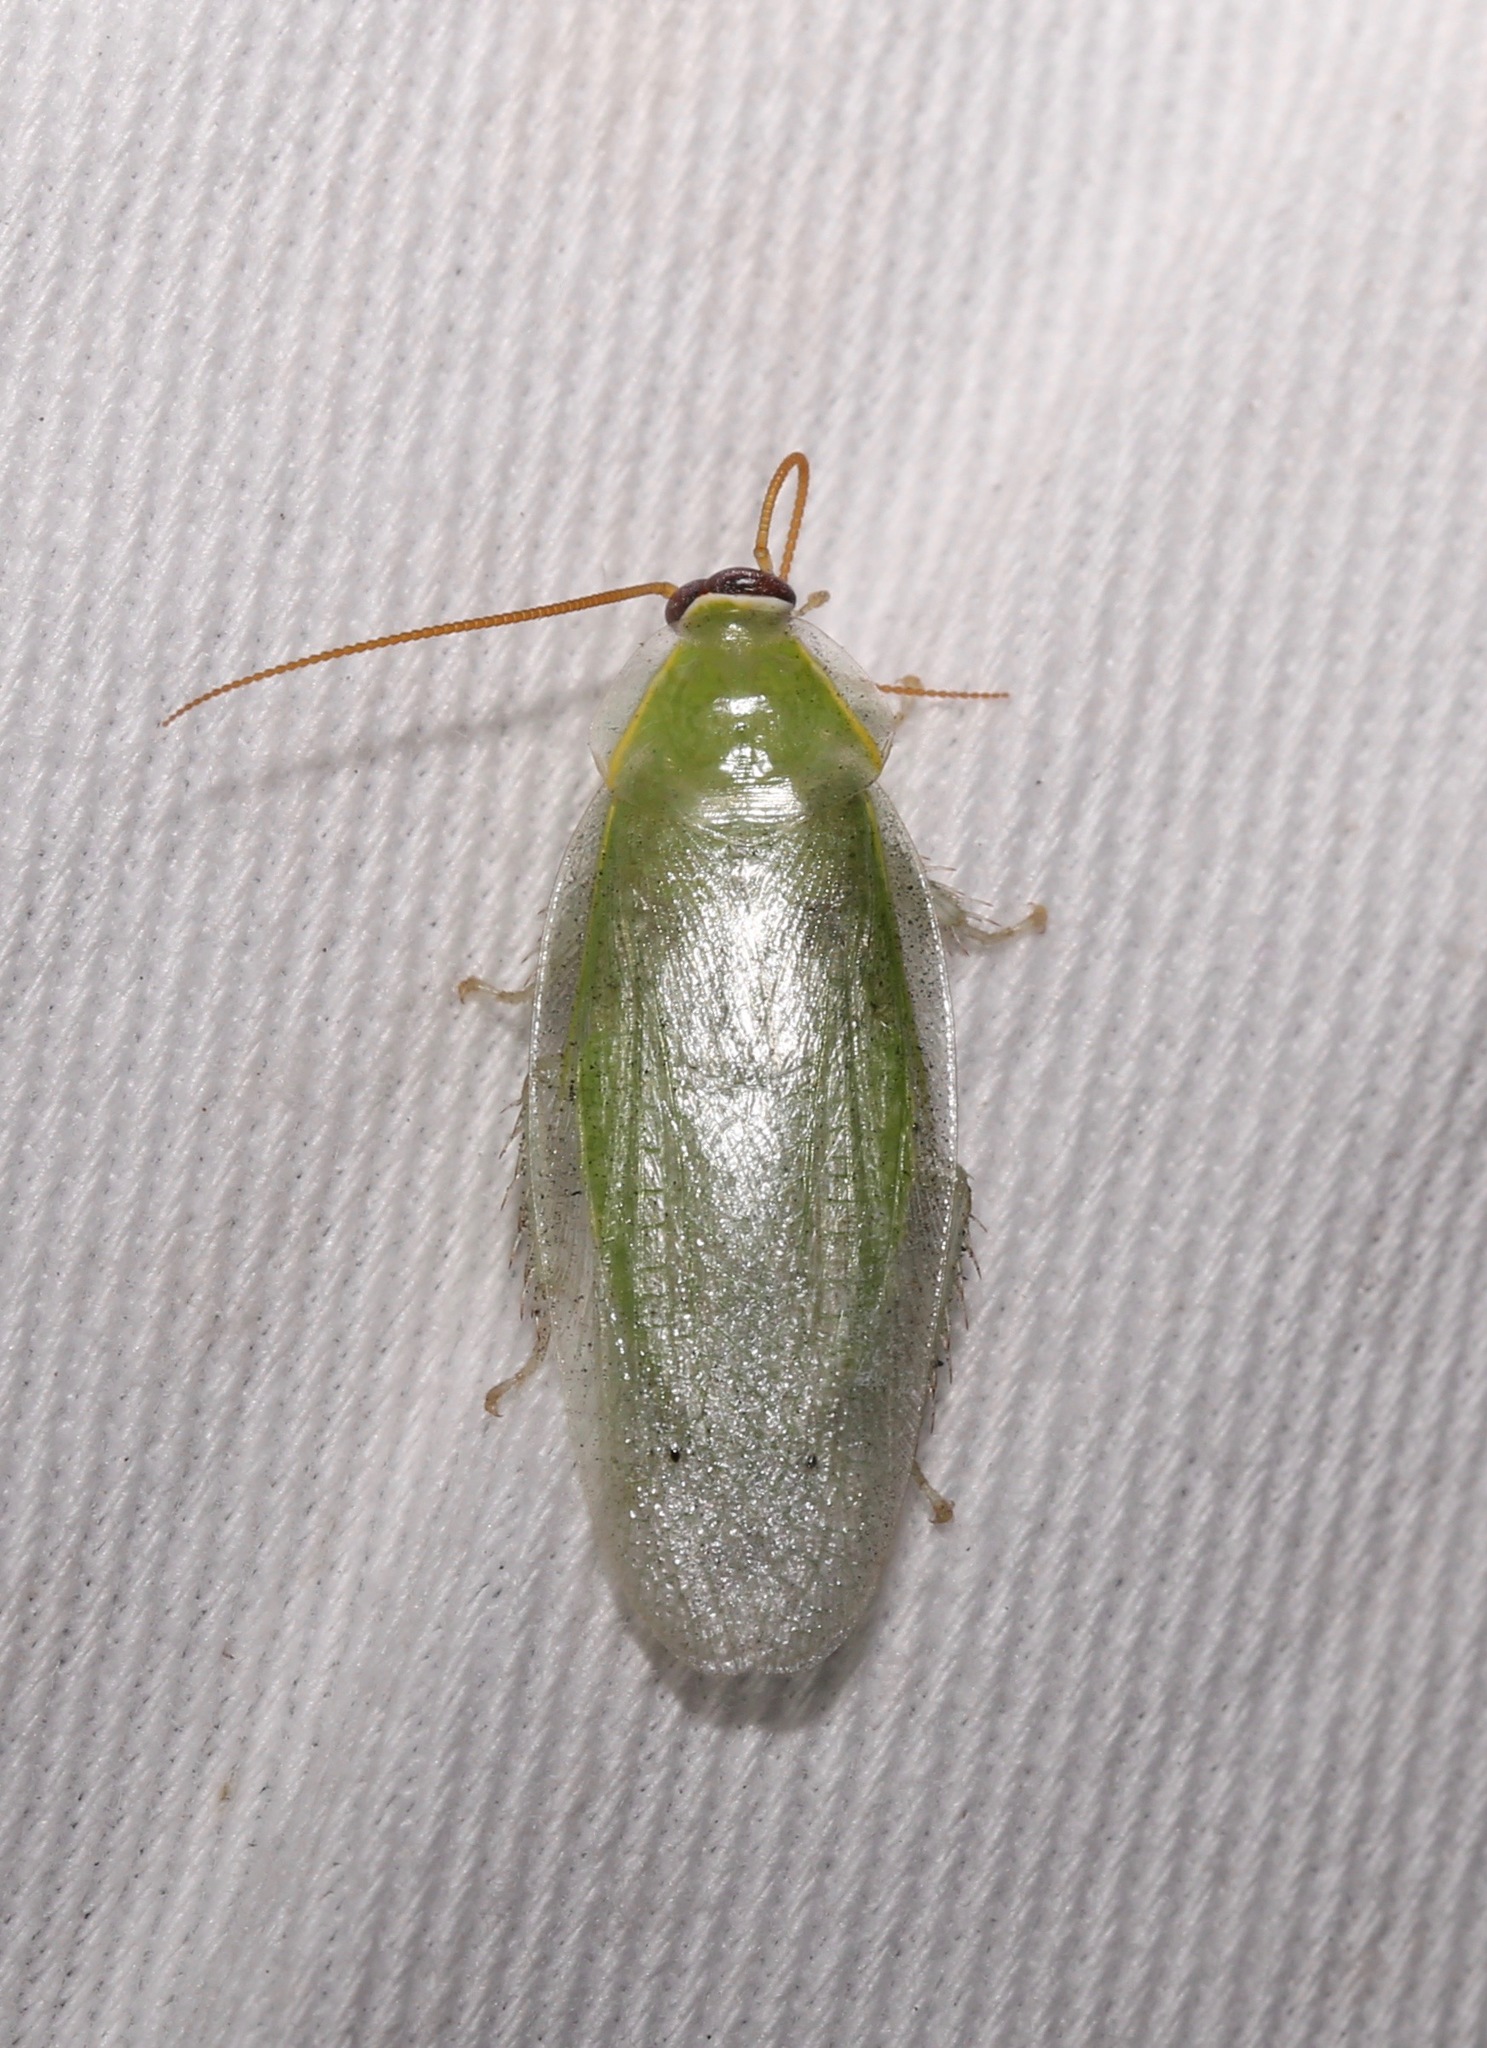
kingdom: Animalia
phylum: Arthropoda
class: Insecta
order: Blattodea
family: Blaberidae
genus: Panchlora
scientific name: Panchlora nivea
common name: Cuban cockroach
